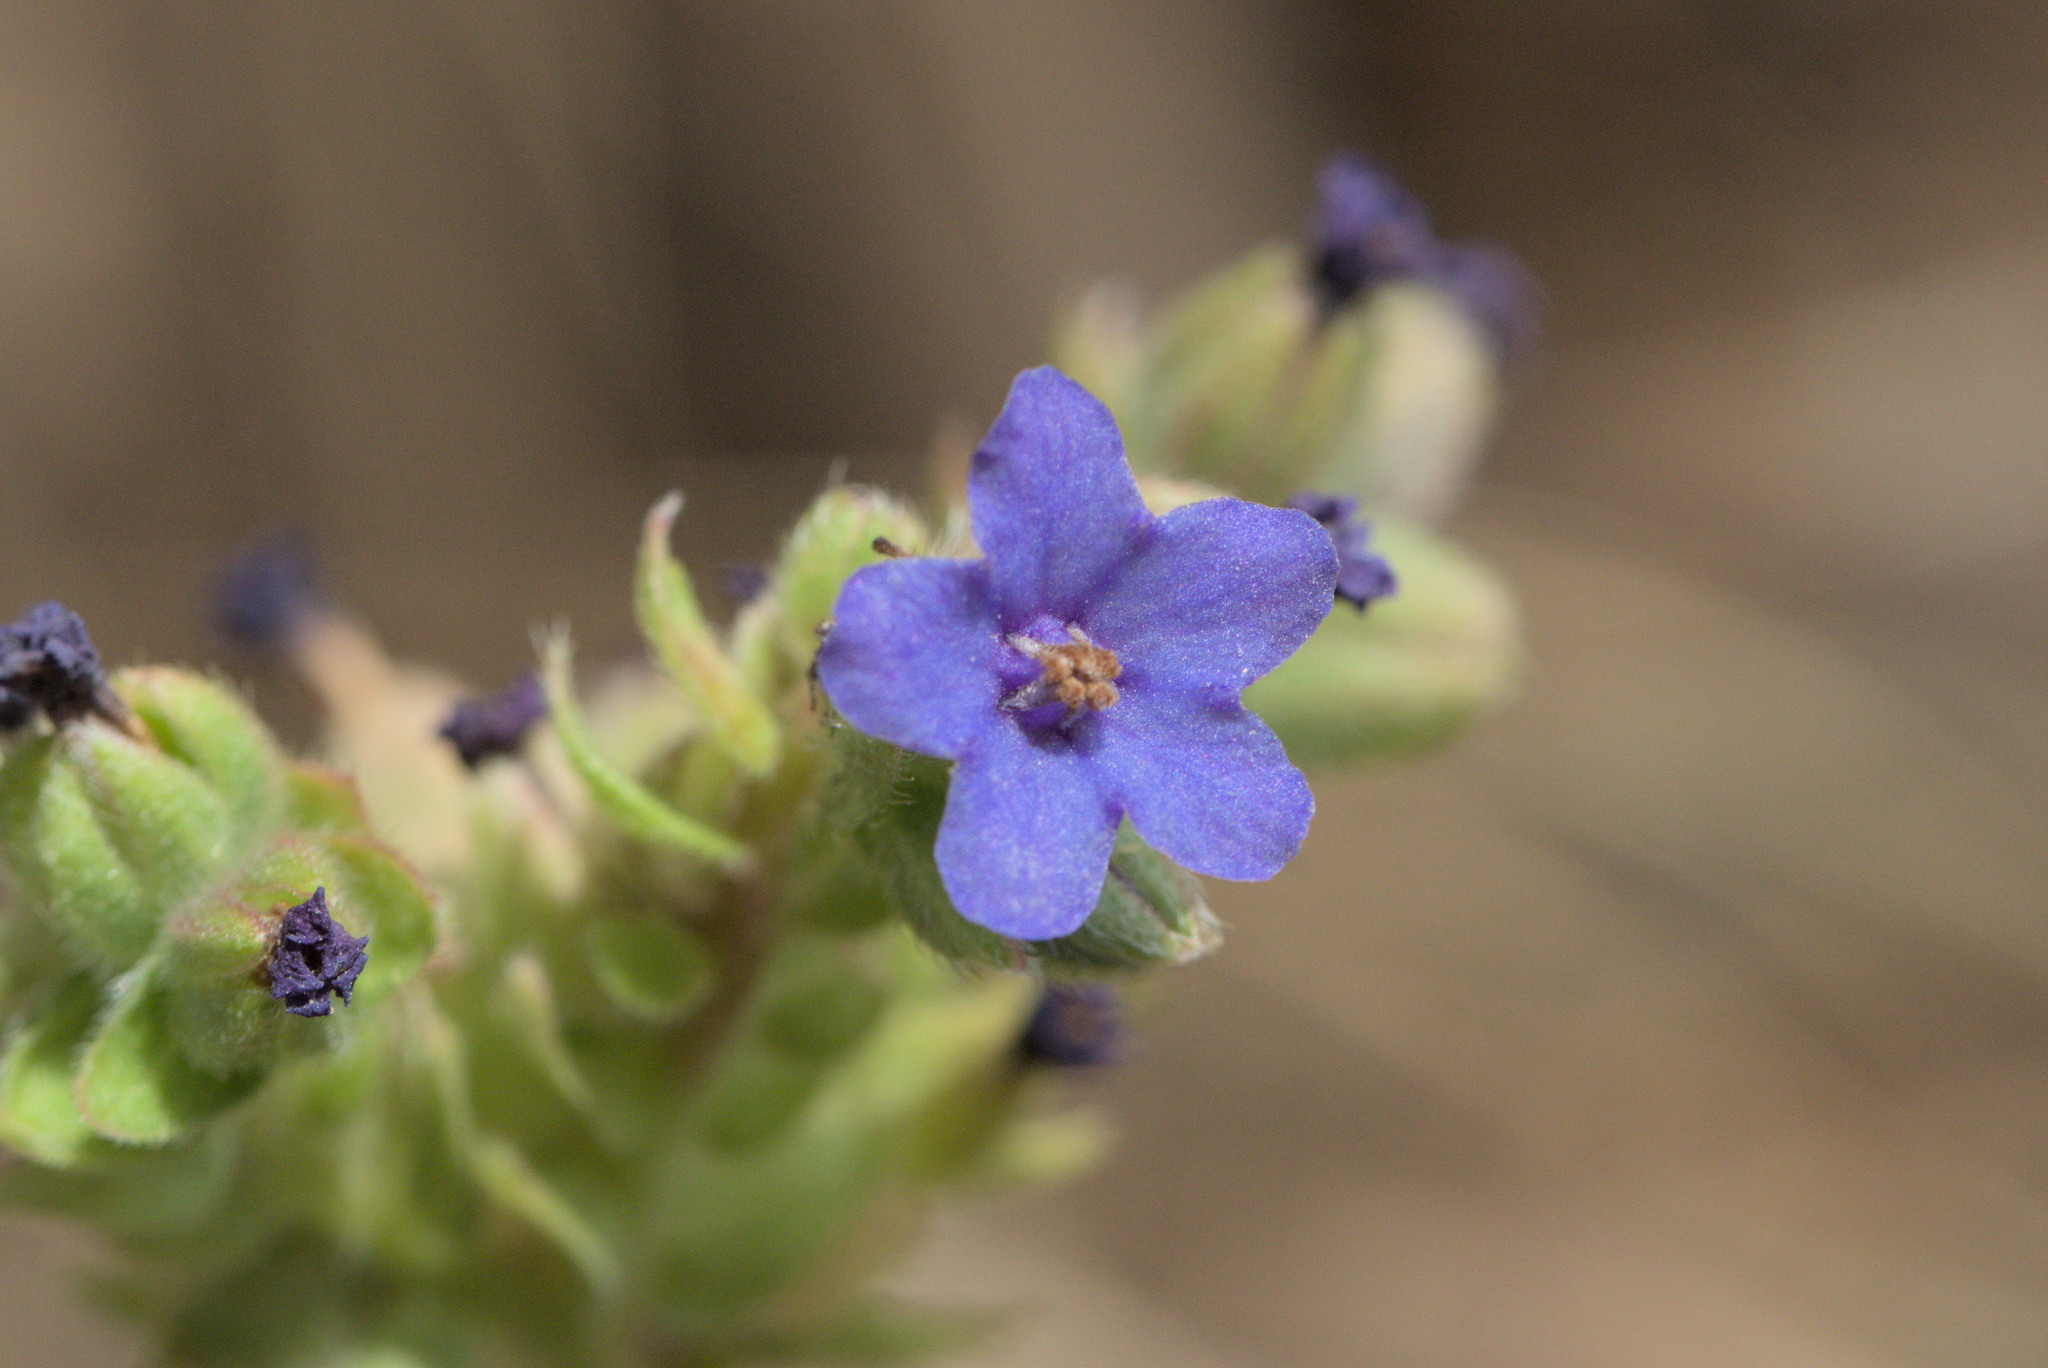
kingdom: Plantae
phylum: Tracheophyta
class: Magnoliopsida
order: Boraginales
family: Boraginaceae
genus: Anchusa
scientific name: Anchusa officinalis
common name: Alkanet
